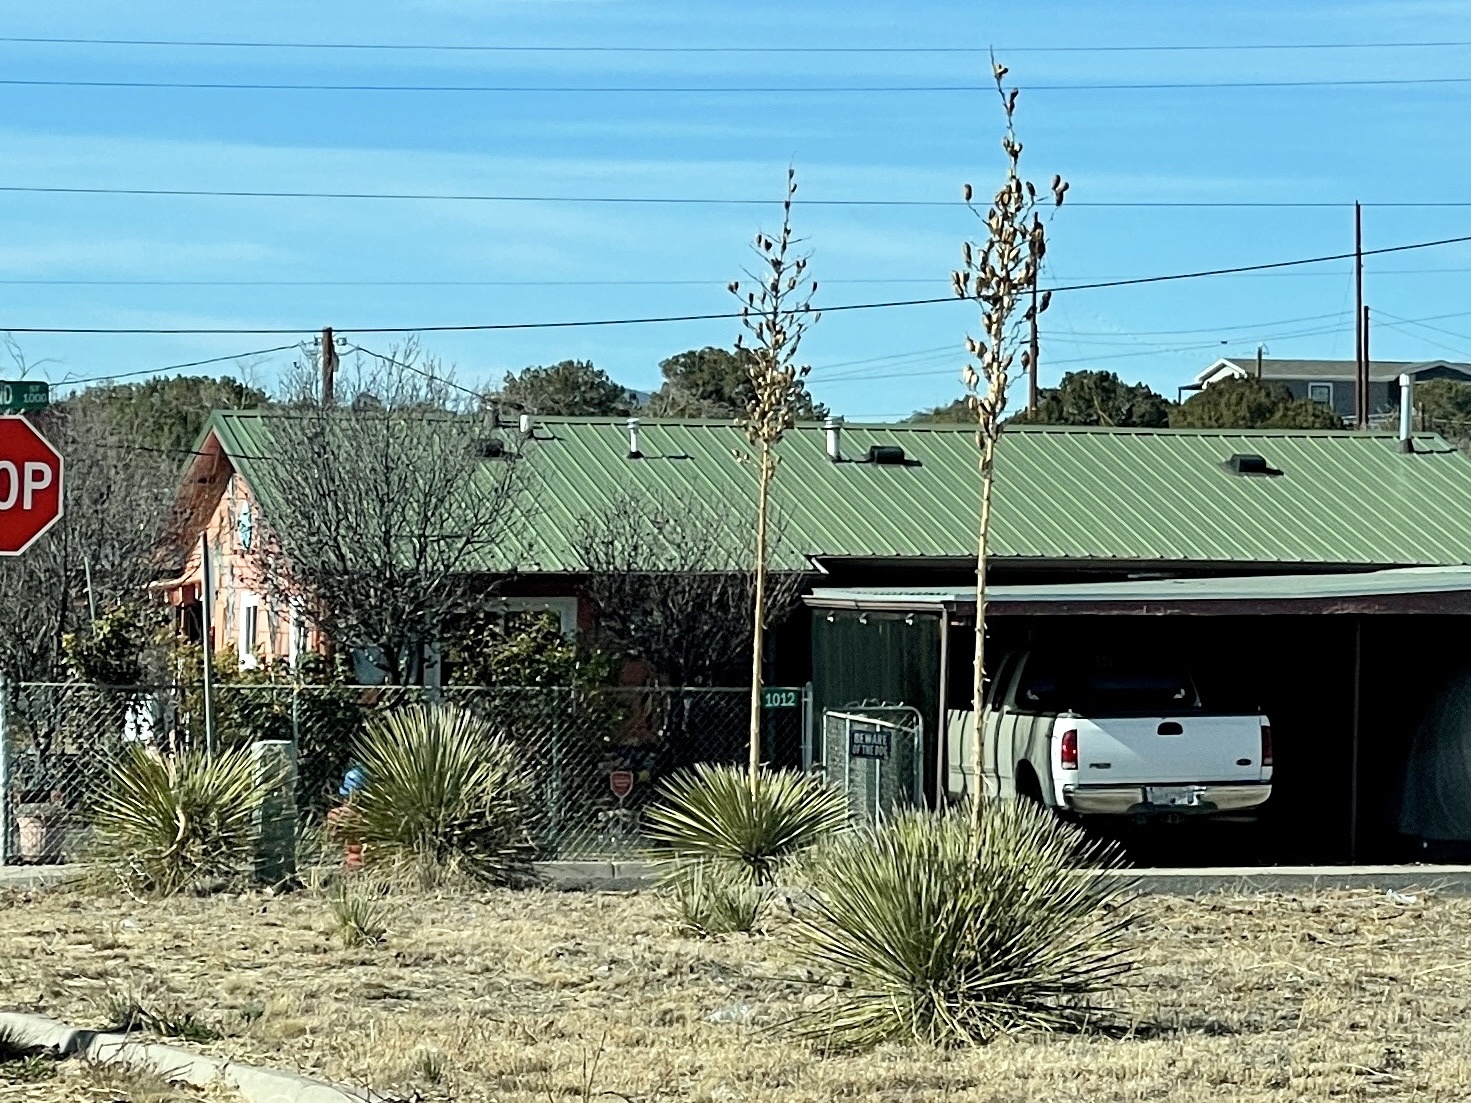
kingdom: Plantae
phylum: Tracheophyta
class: Liliopsida
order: Asparagales
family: Asparagaceae
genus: Yucca
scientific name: Yucca elata
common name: Palmella
